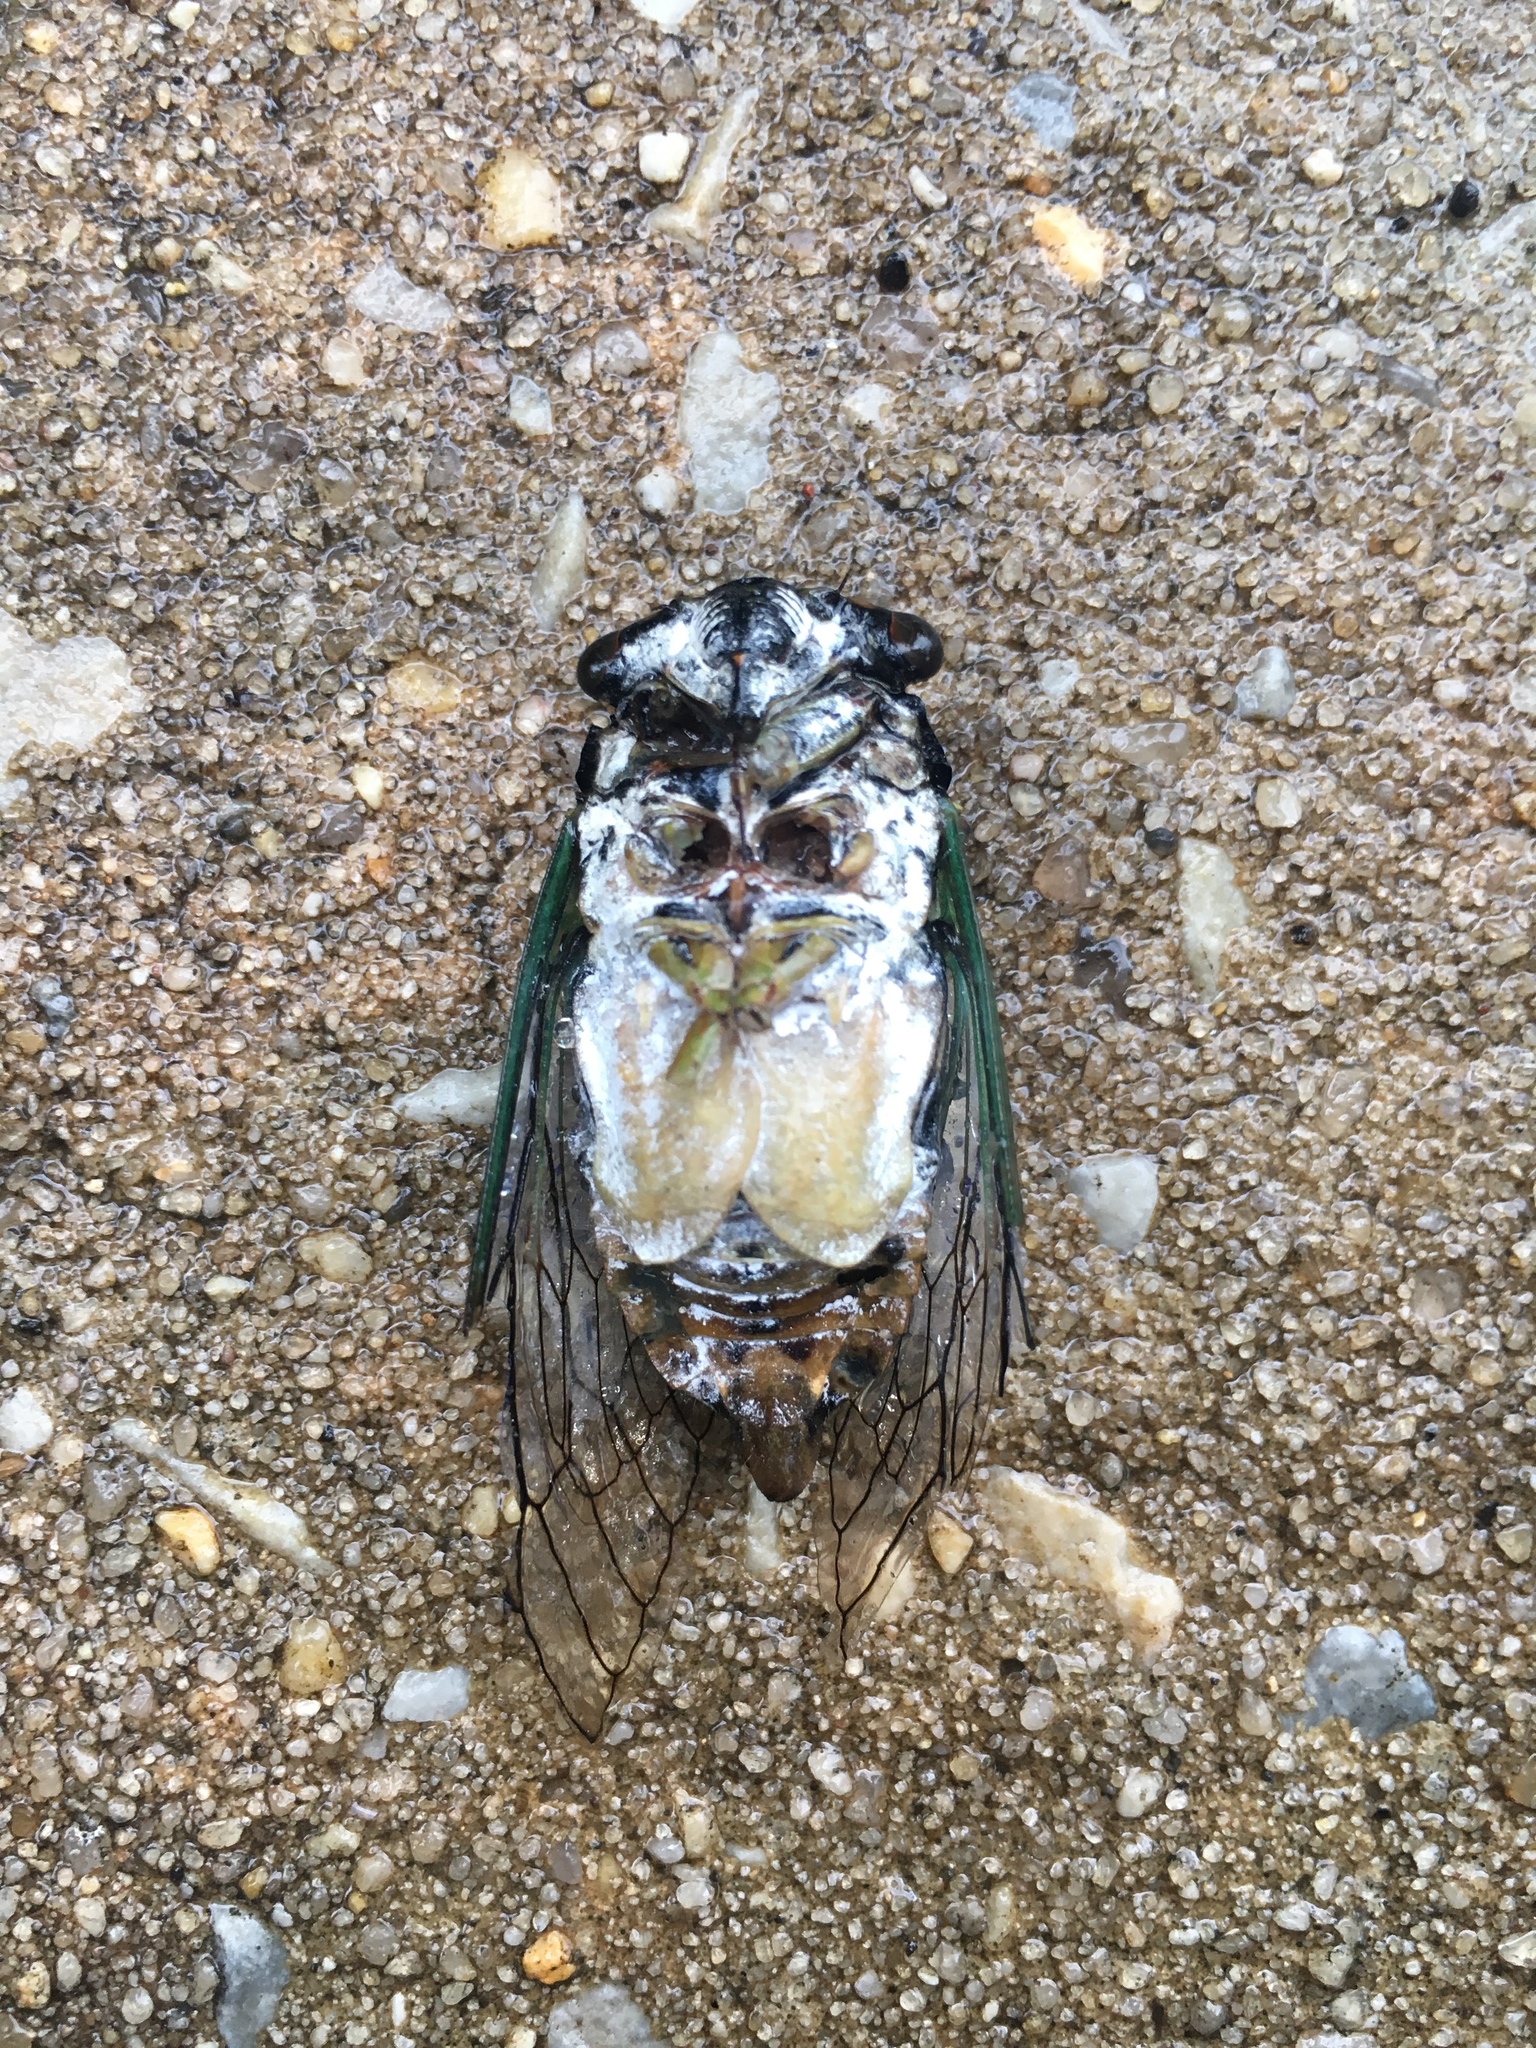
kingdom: Animalia
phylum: Arthropoda
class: Insecta
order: Hemiptera
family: Cicadidae
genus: Neotibicen
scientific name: Neotibicen tibicen
